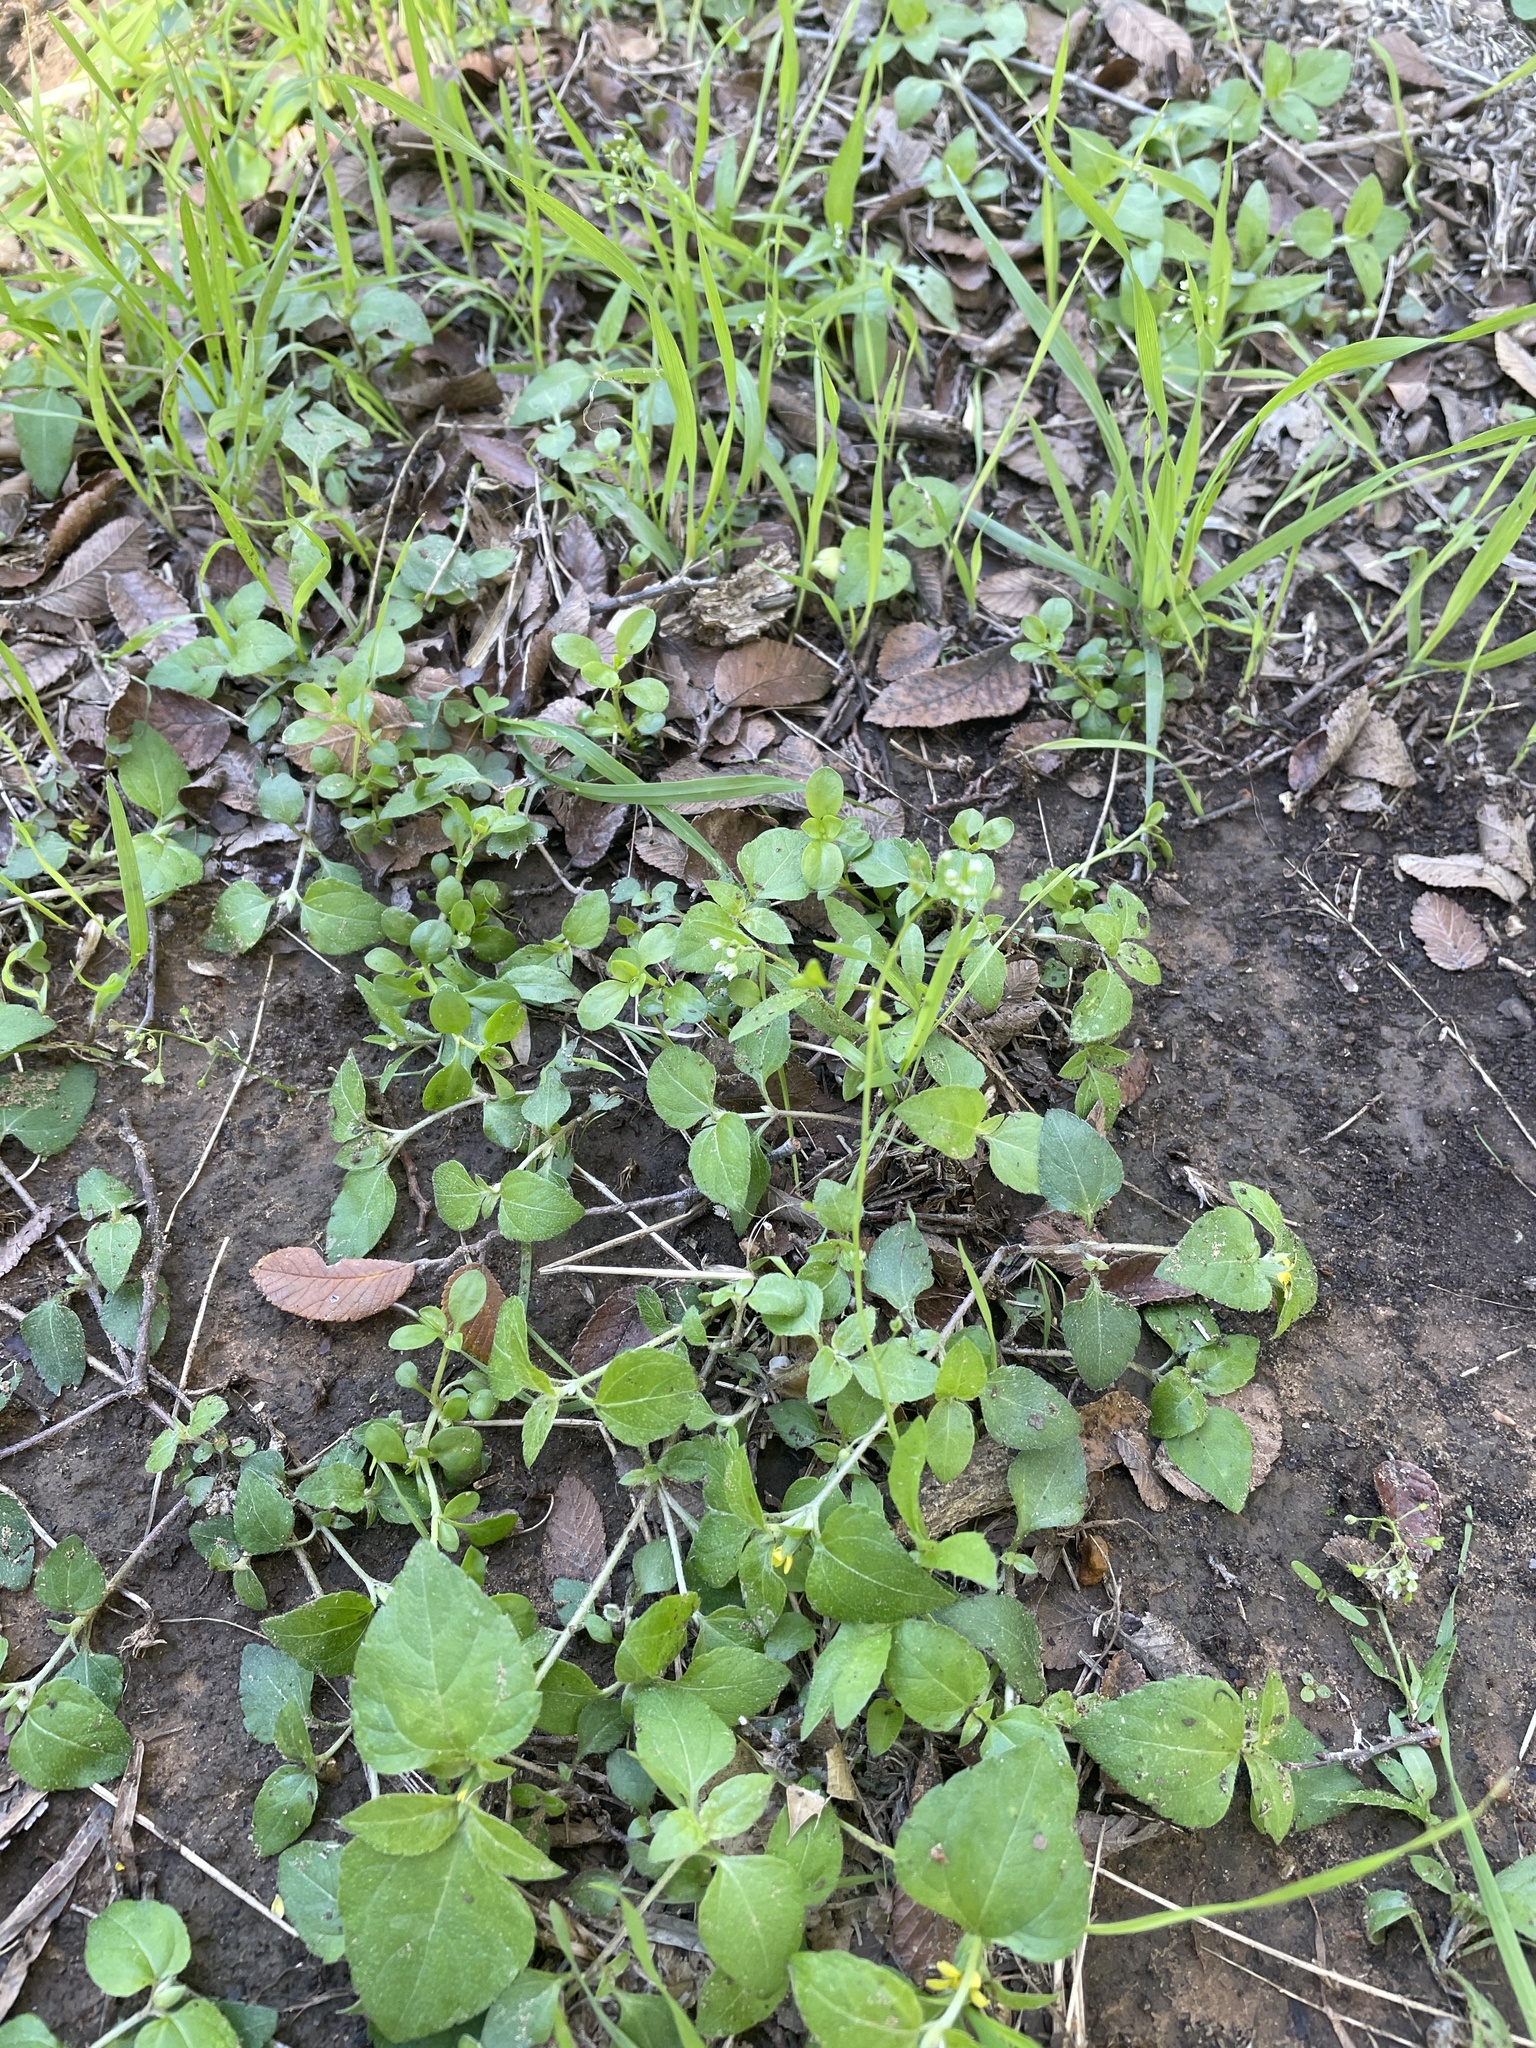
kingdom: Plantae
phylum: Tracheophyta
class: Magnoliopsida
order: Brassicales
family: Brassicaceae
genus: Capsella
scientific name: Capsella bursa-pastoris
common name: Shepherd's purse
